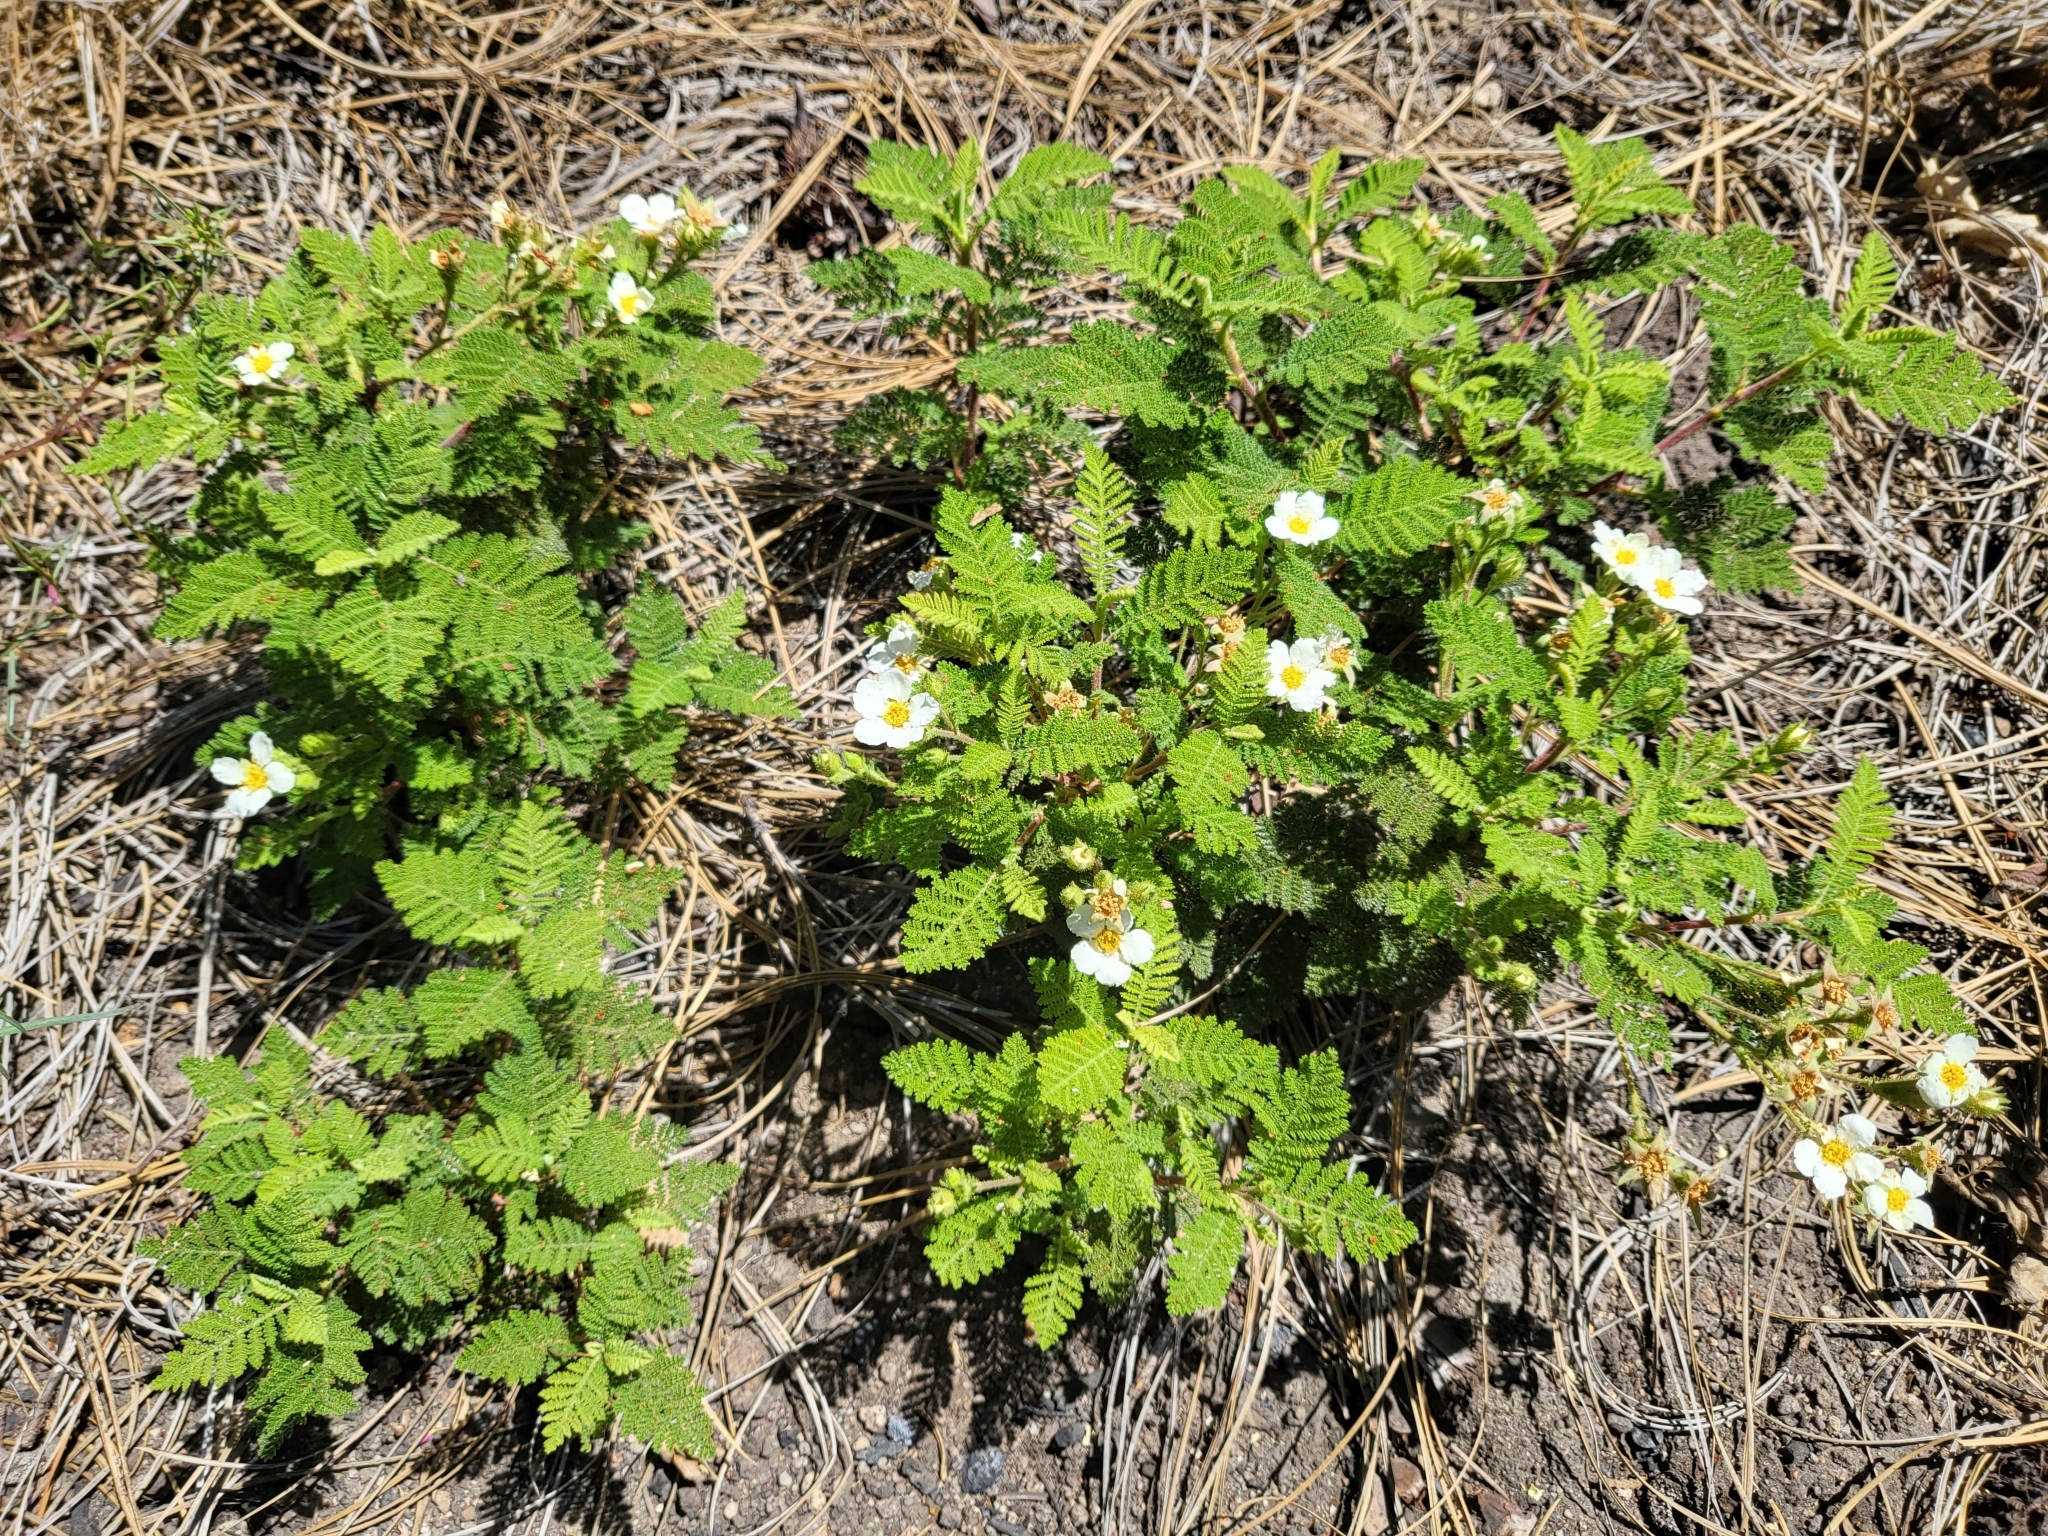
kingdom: Plantae
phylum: Tracheophyta
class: Magnoliopsida
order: Rosales
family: Rosaceae
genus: Chamaebatia
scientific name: Chamaebatia foliolosa
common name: Mountain misery
